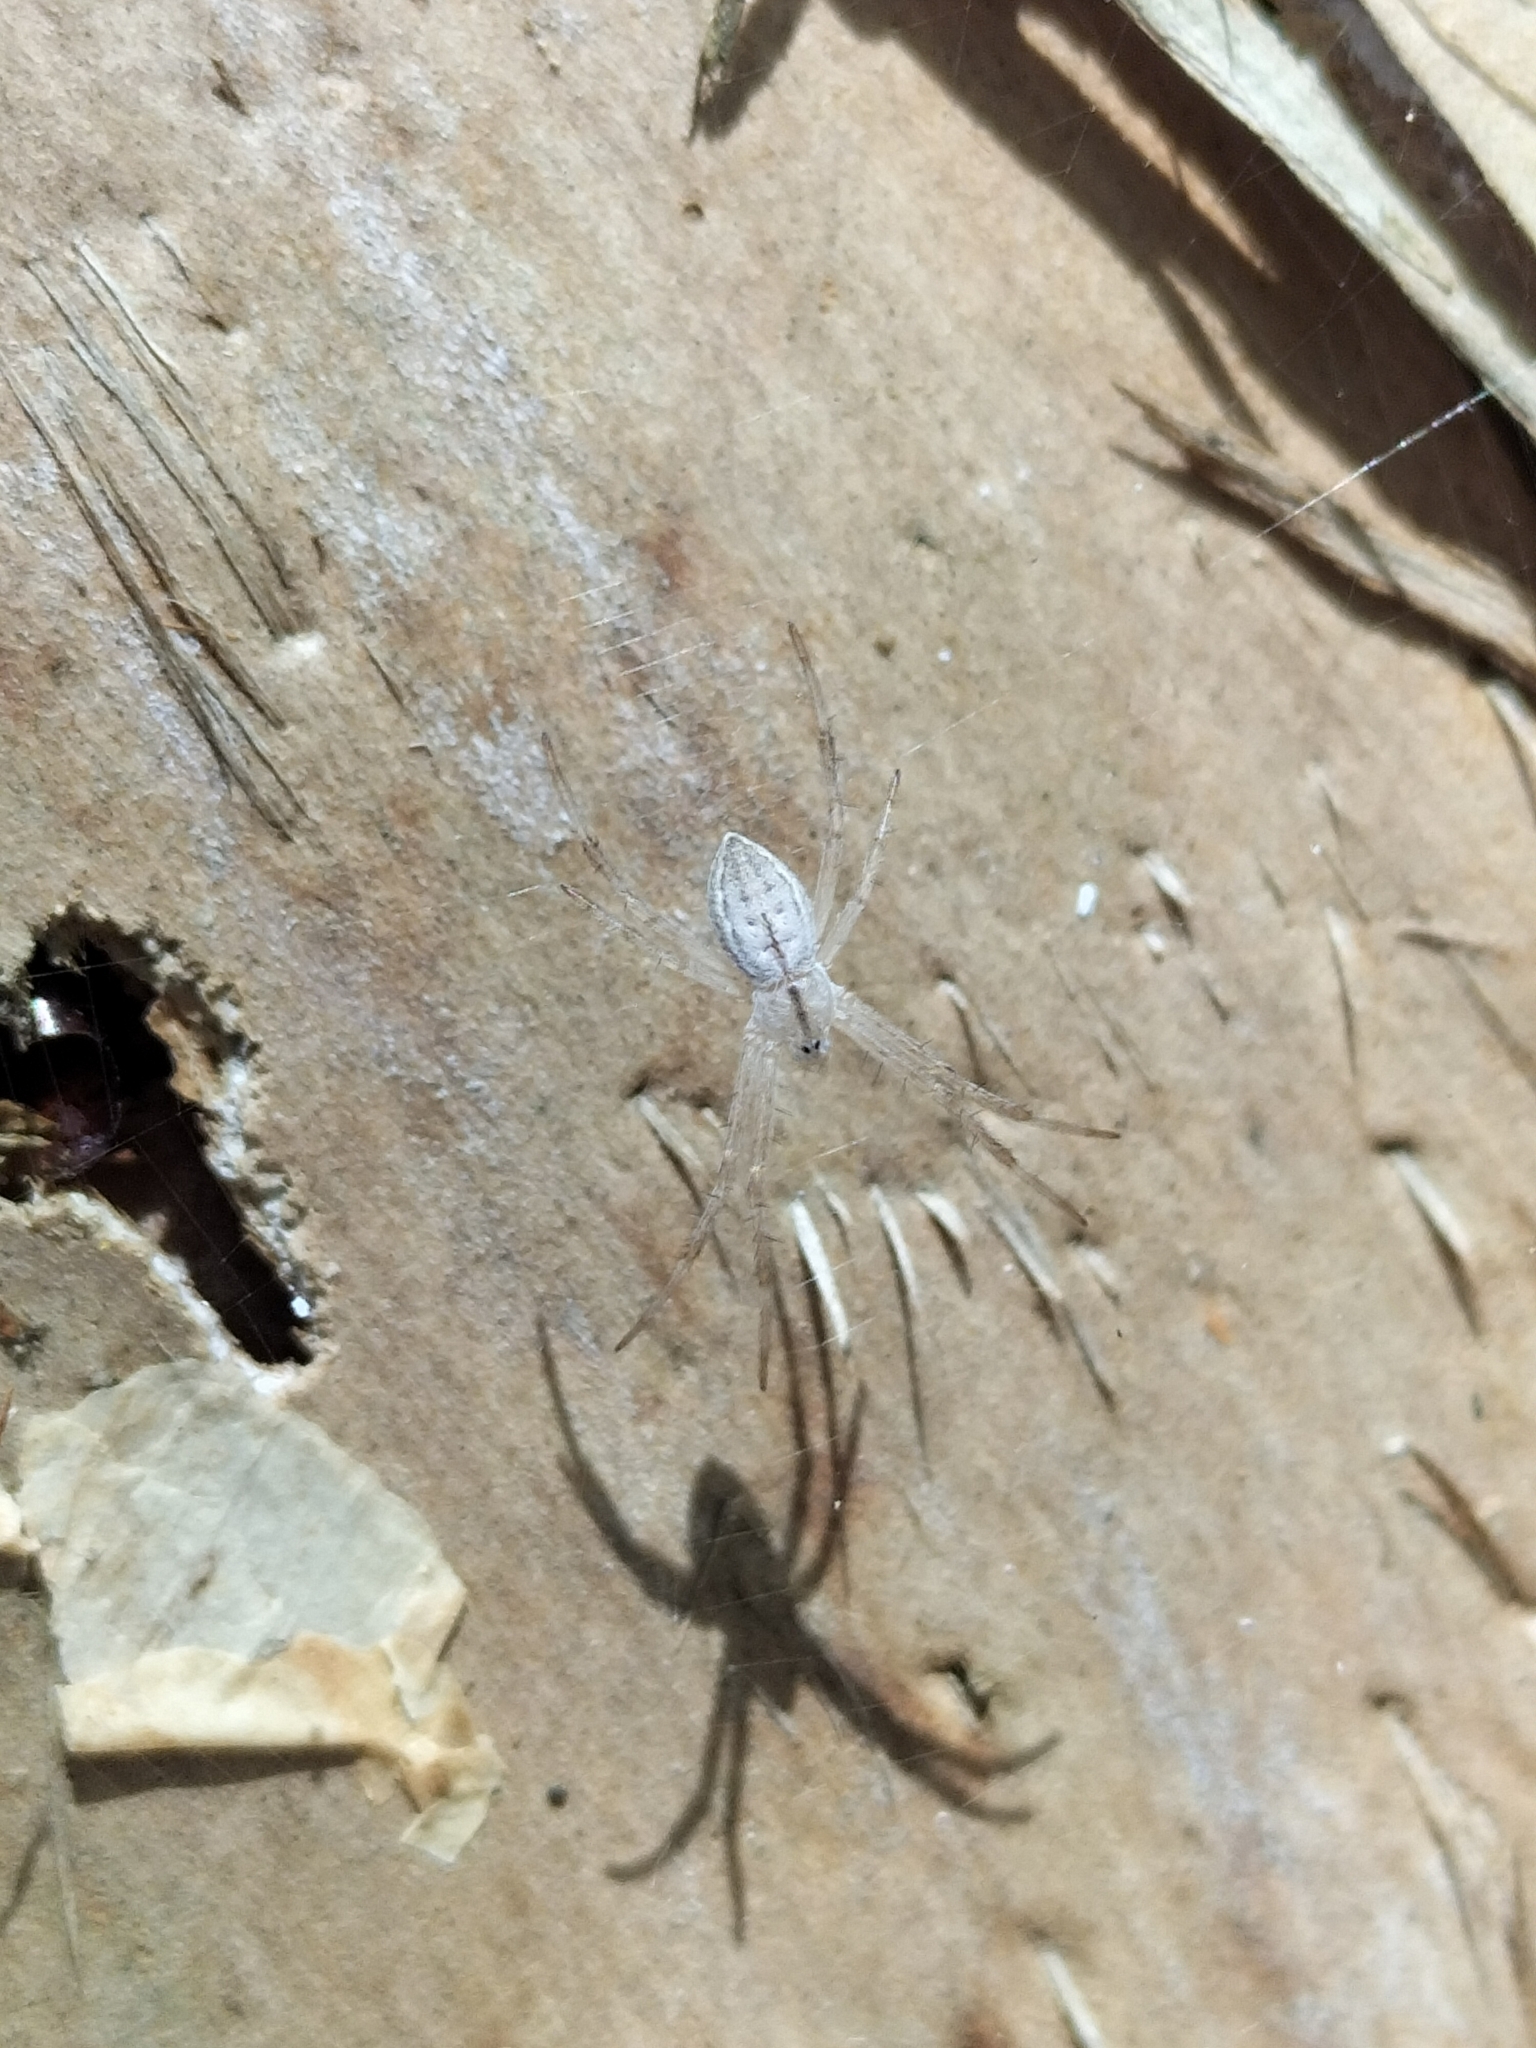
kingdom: Animalia
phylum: Arthropoda
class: Arachnida
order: Araneae
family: Araneidae
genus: Argiope
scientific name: Argiope ocyaloides
